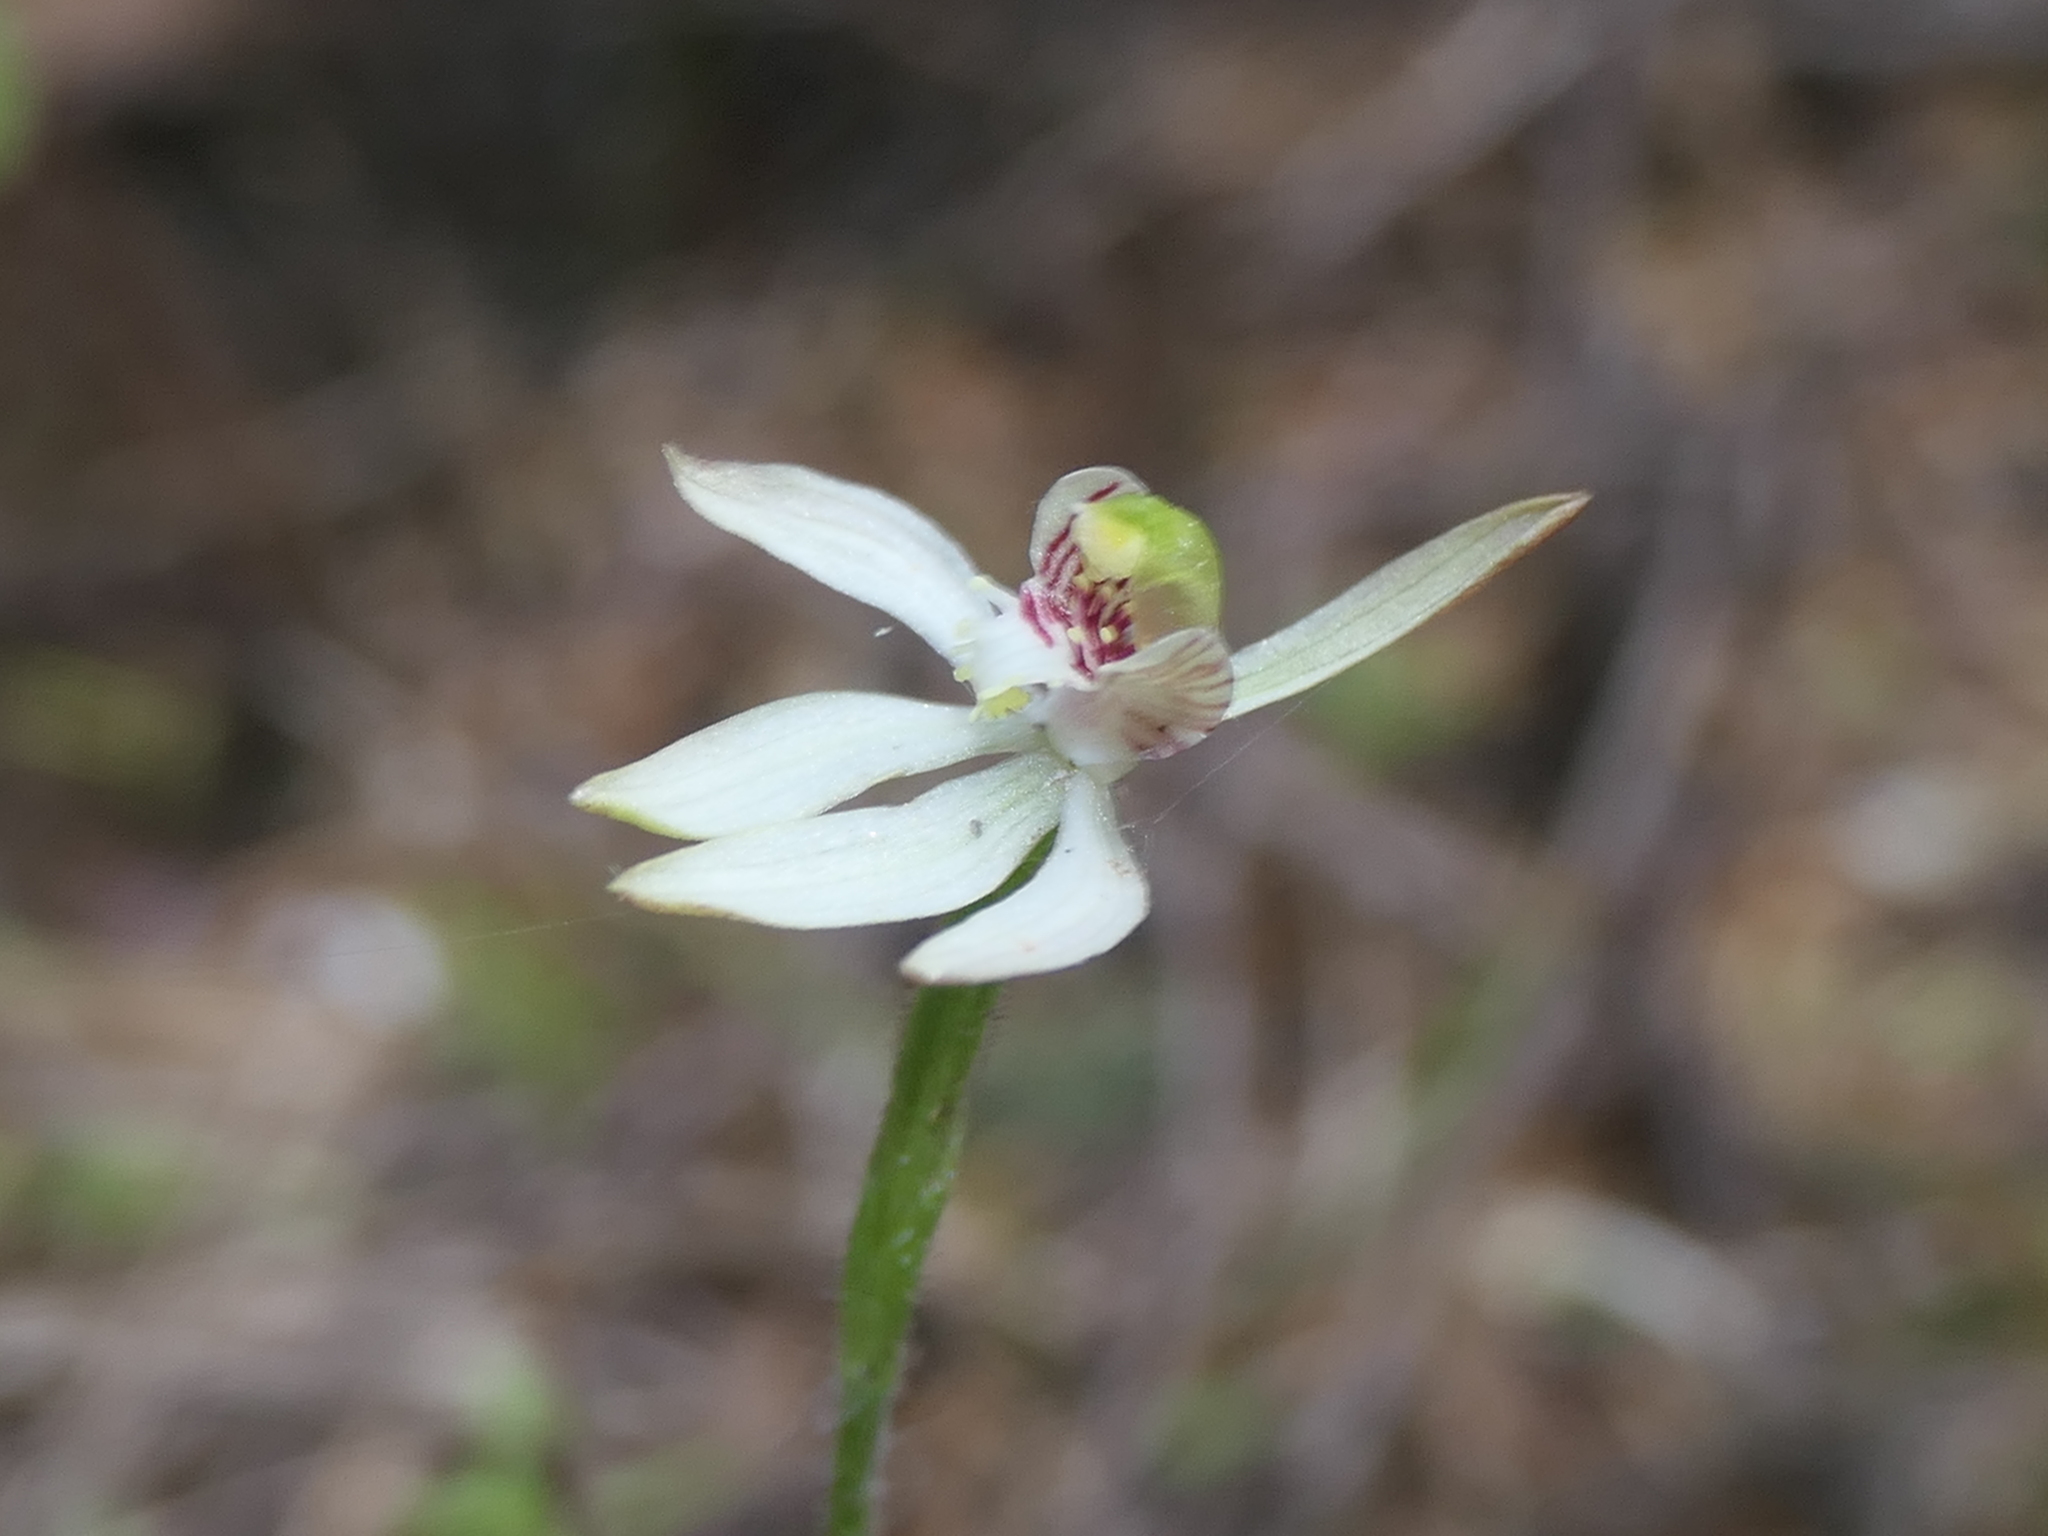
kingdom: Plantae
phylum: Tracheophyta
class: Liliopsida
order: Asparagales
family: Orchidaceae
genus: Caladenia
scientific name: Caladenia chlorostyla
